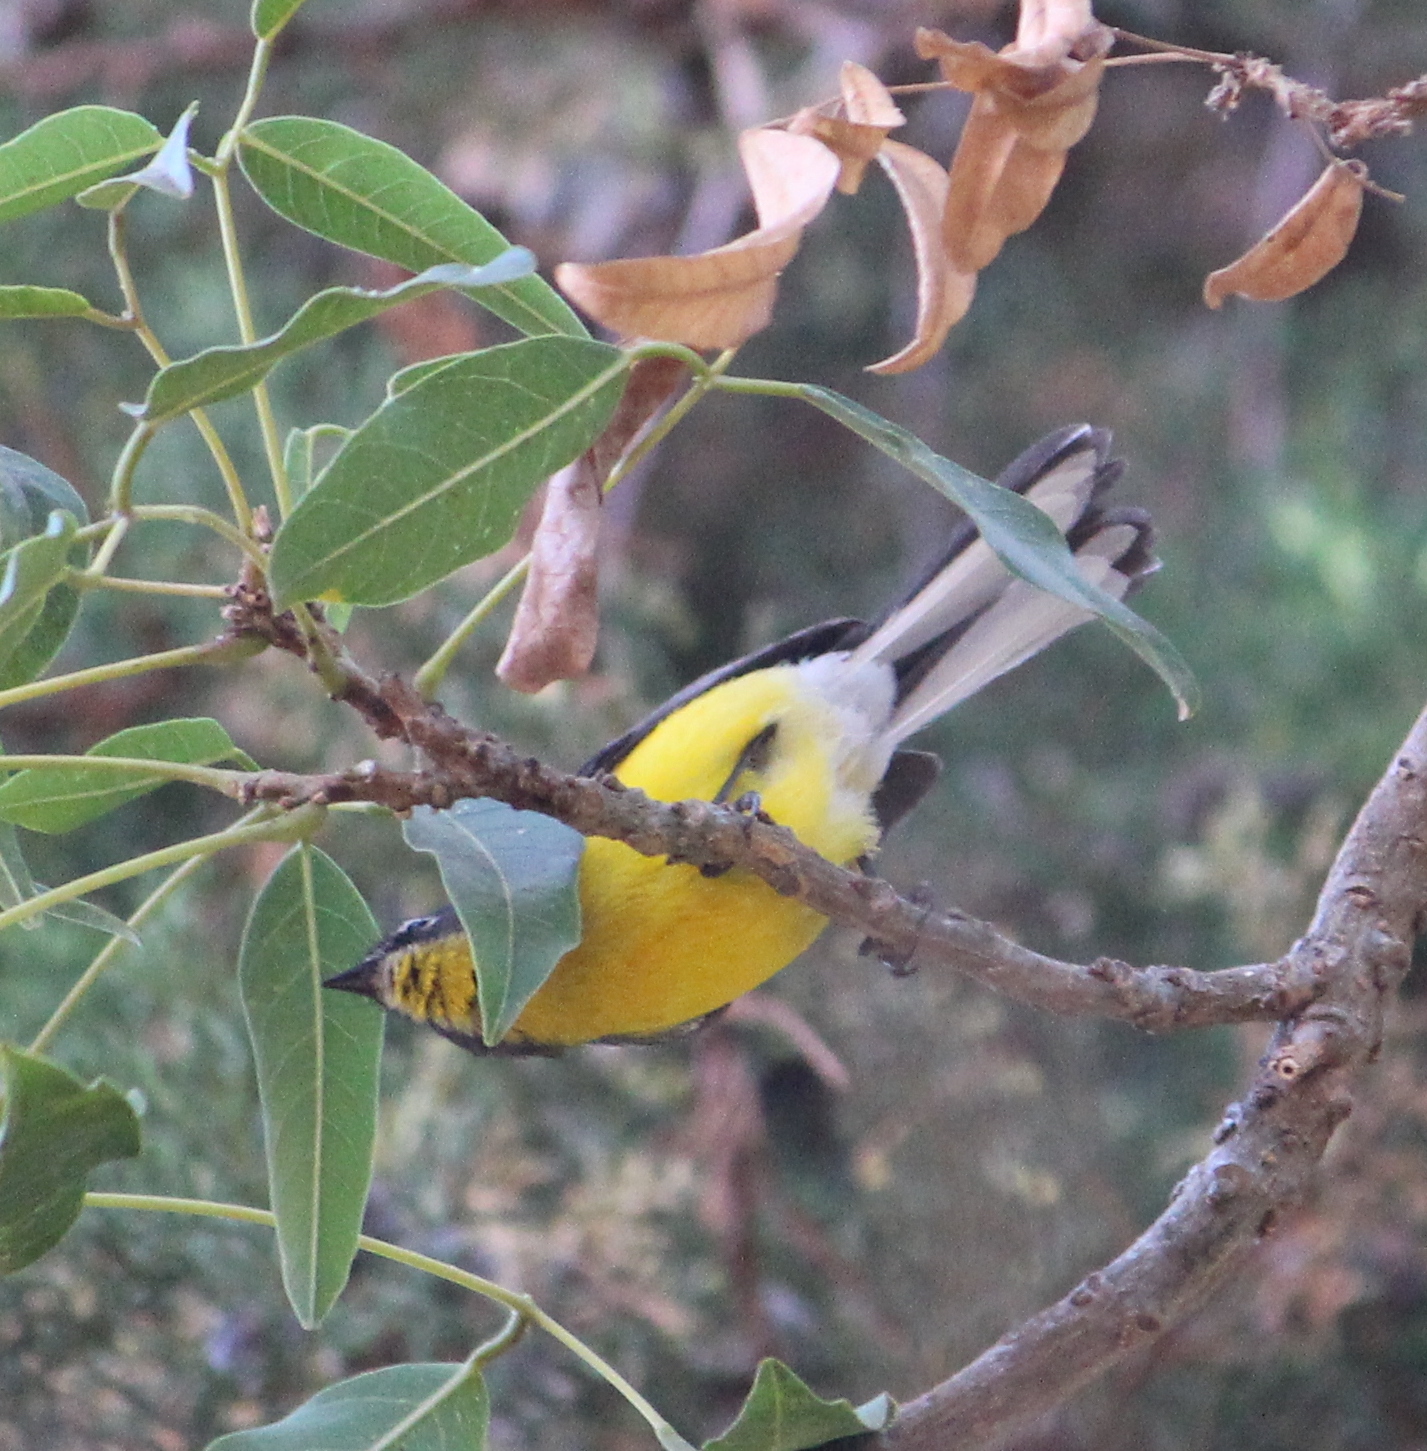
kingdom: Animalia
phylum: Chordata
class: Aves
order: Passeriformes
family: Parulidae
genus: Myioborus
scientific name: Myioborus melanocephalus
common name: Spectacled whitestart
